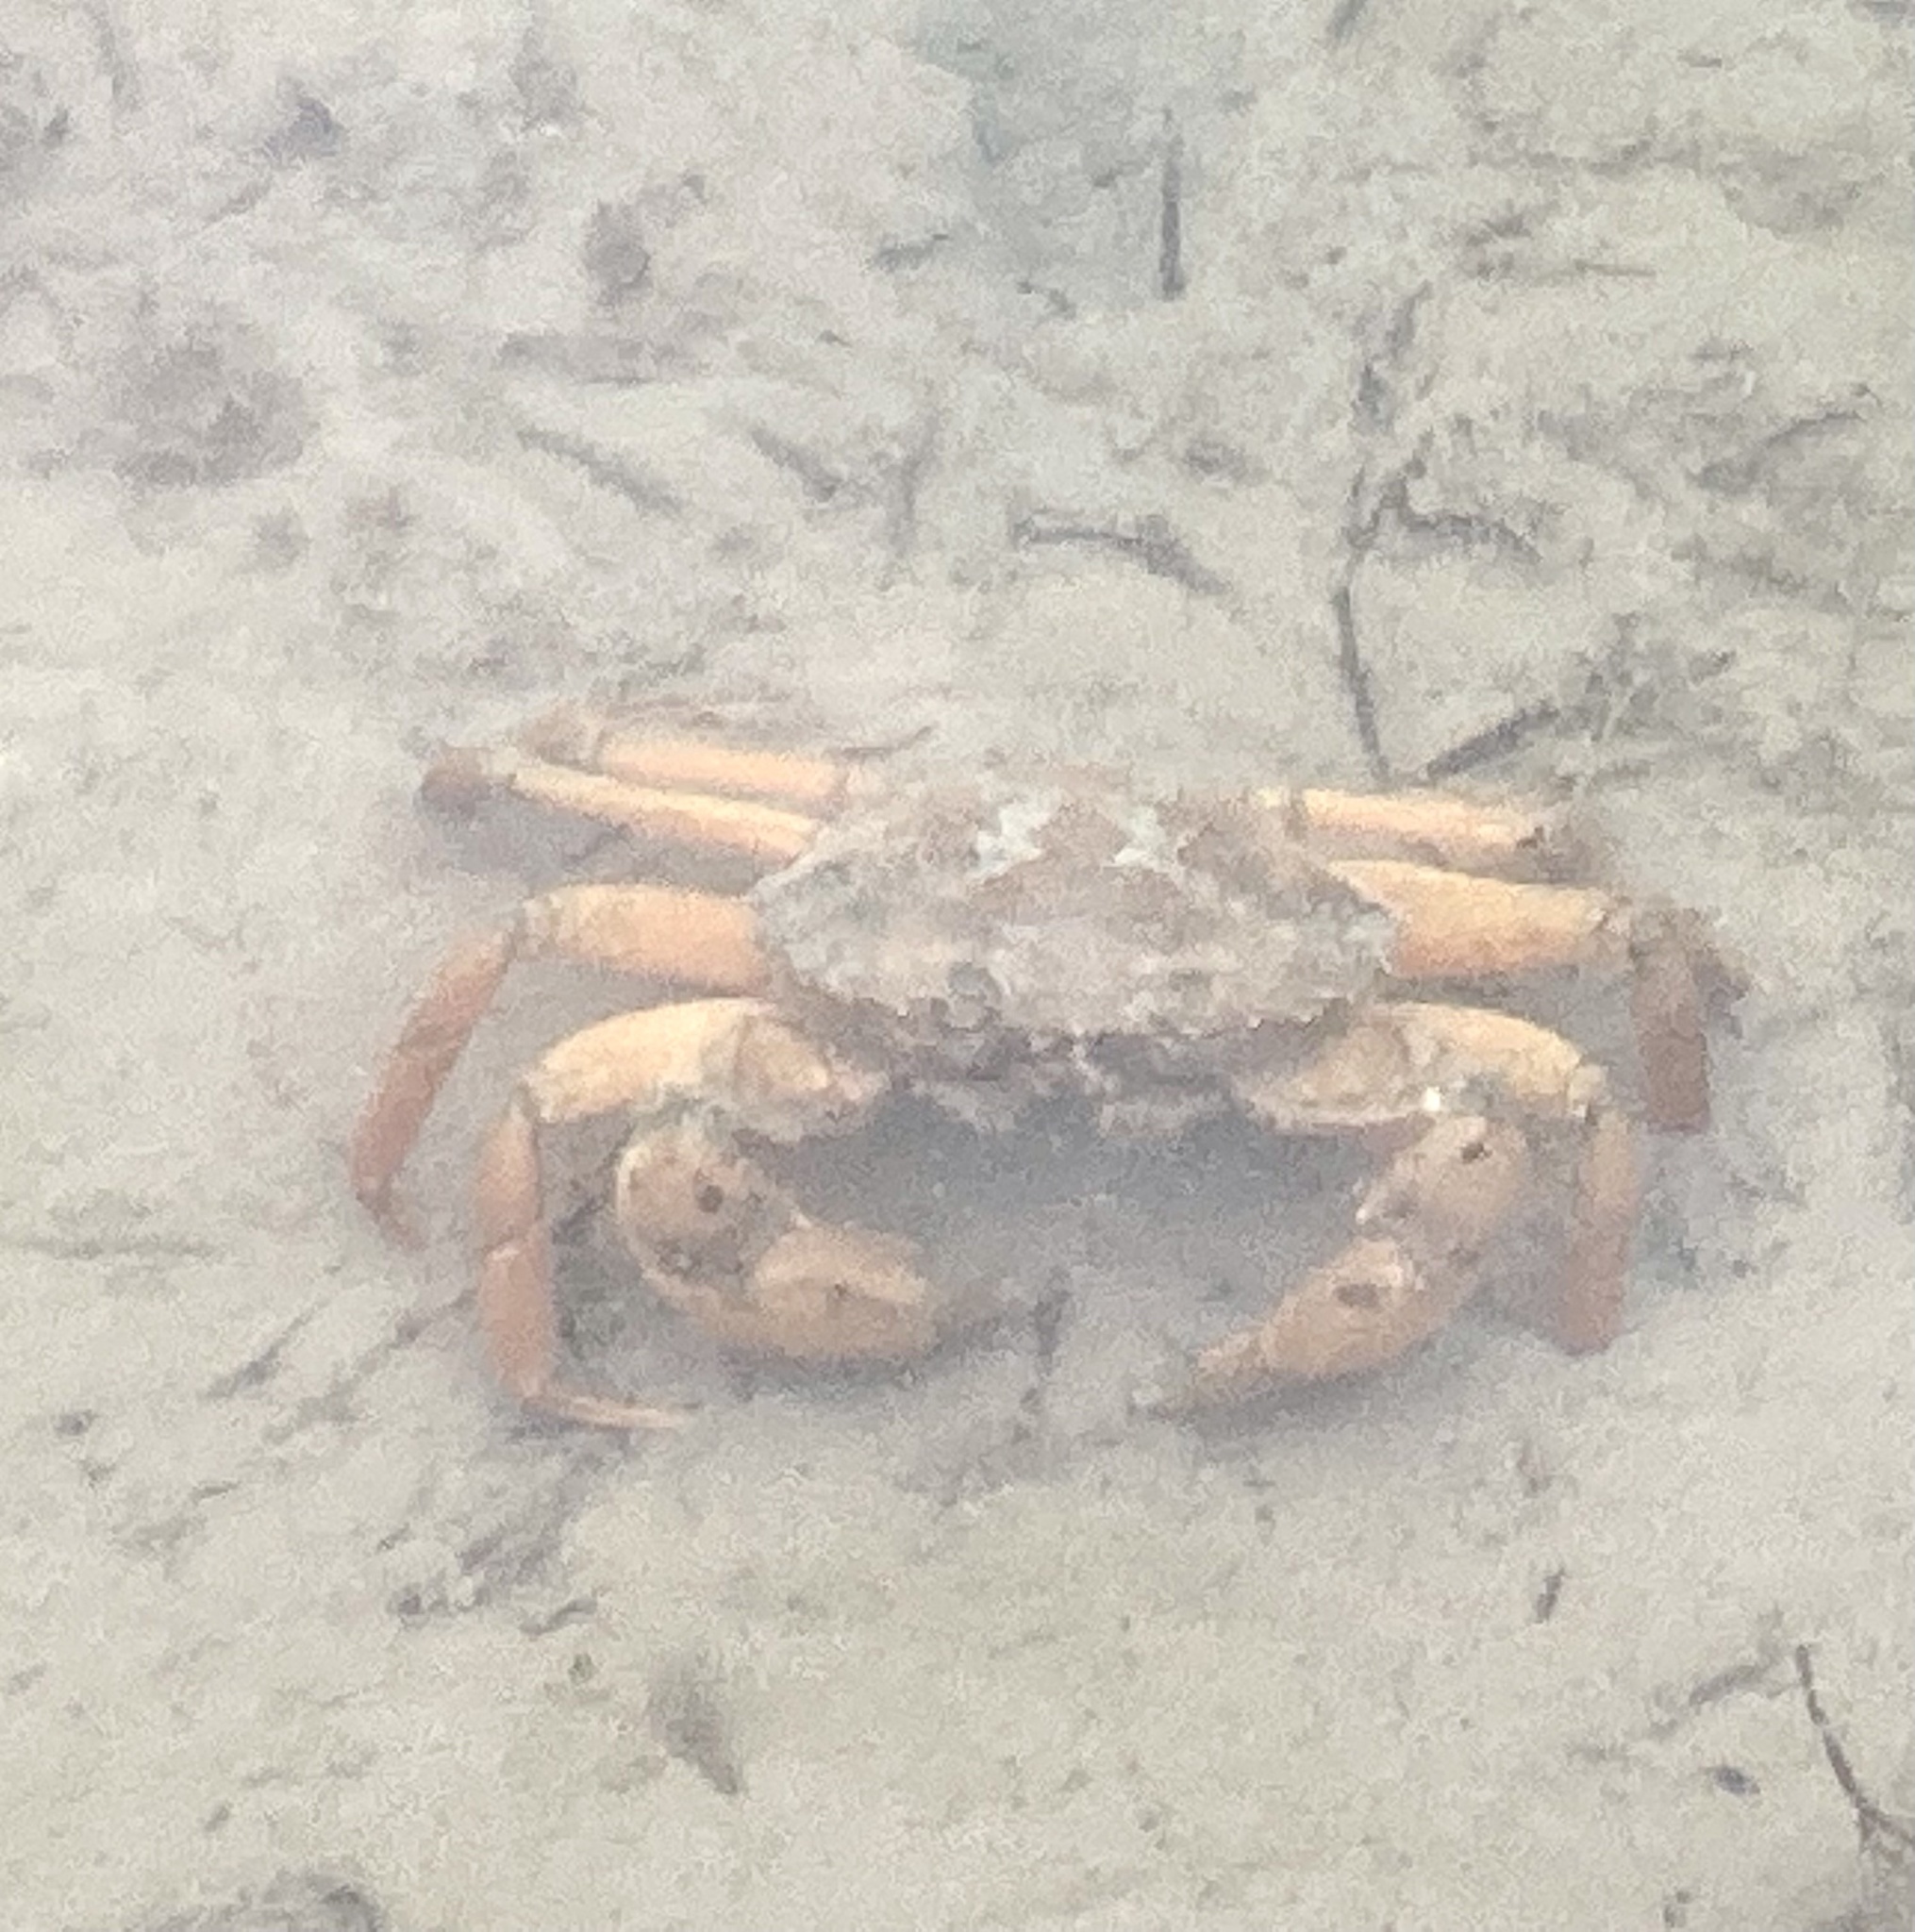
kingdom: Animalia
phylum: Arthropoda
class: Malacostraca
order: Decapoda
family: Carcinidae
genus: Carcinus
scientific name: Carcinus aestuarii
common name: Mediterranean green crab
